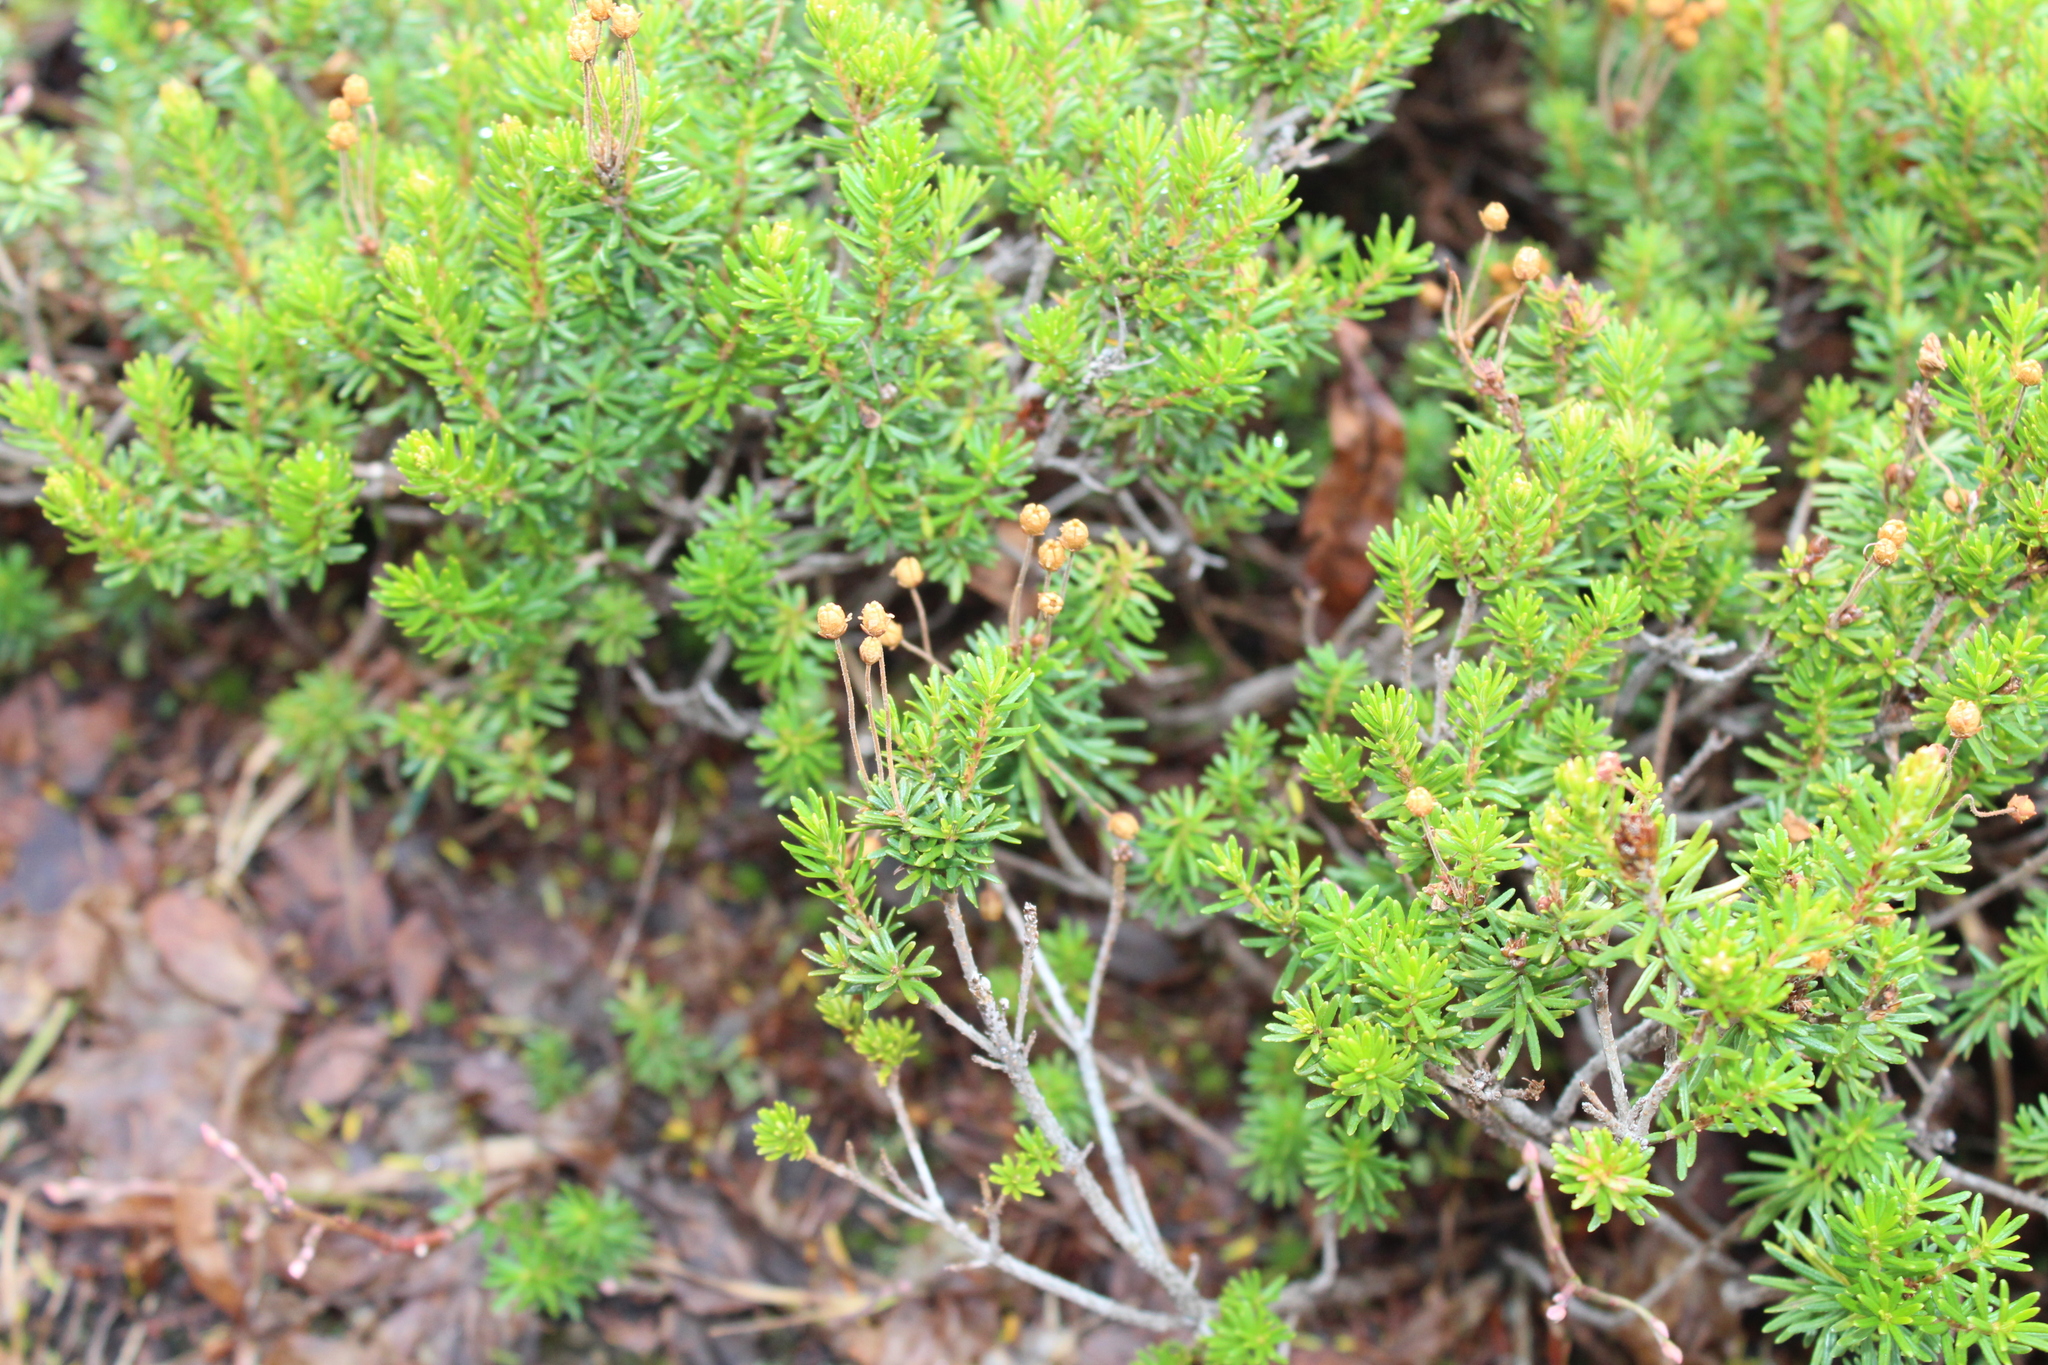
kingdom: Plantae
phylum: Tracheophyta
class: Magnoliopsida
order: Ericales
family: Ericaceae
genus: Phyllodoce
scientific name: Phyllodoce empetriformis
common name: Pink mountain heather
